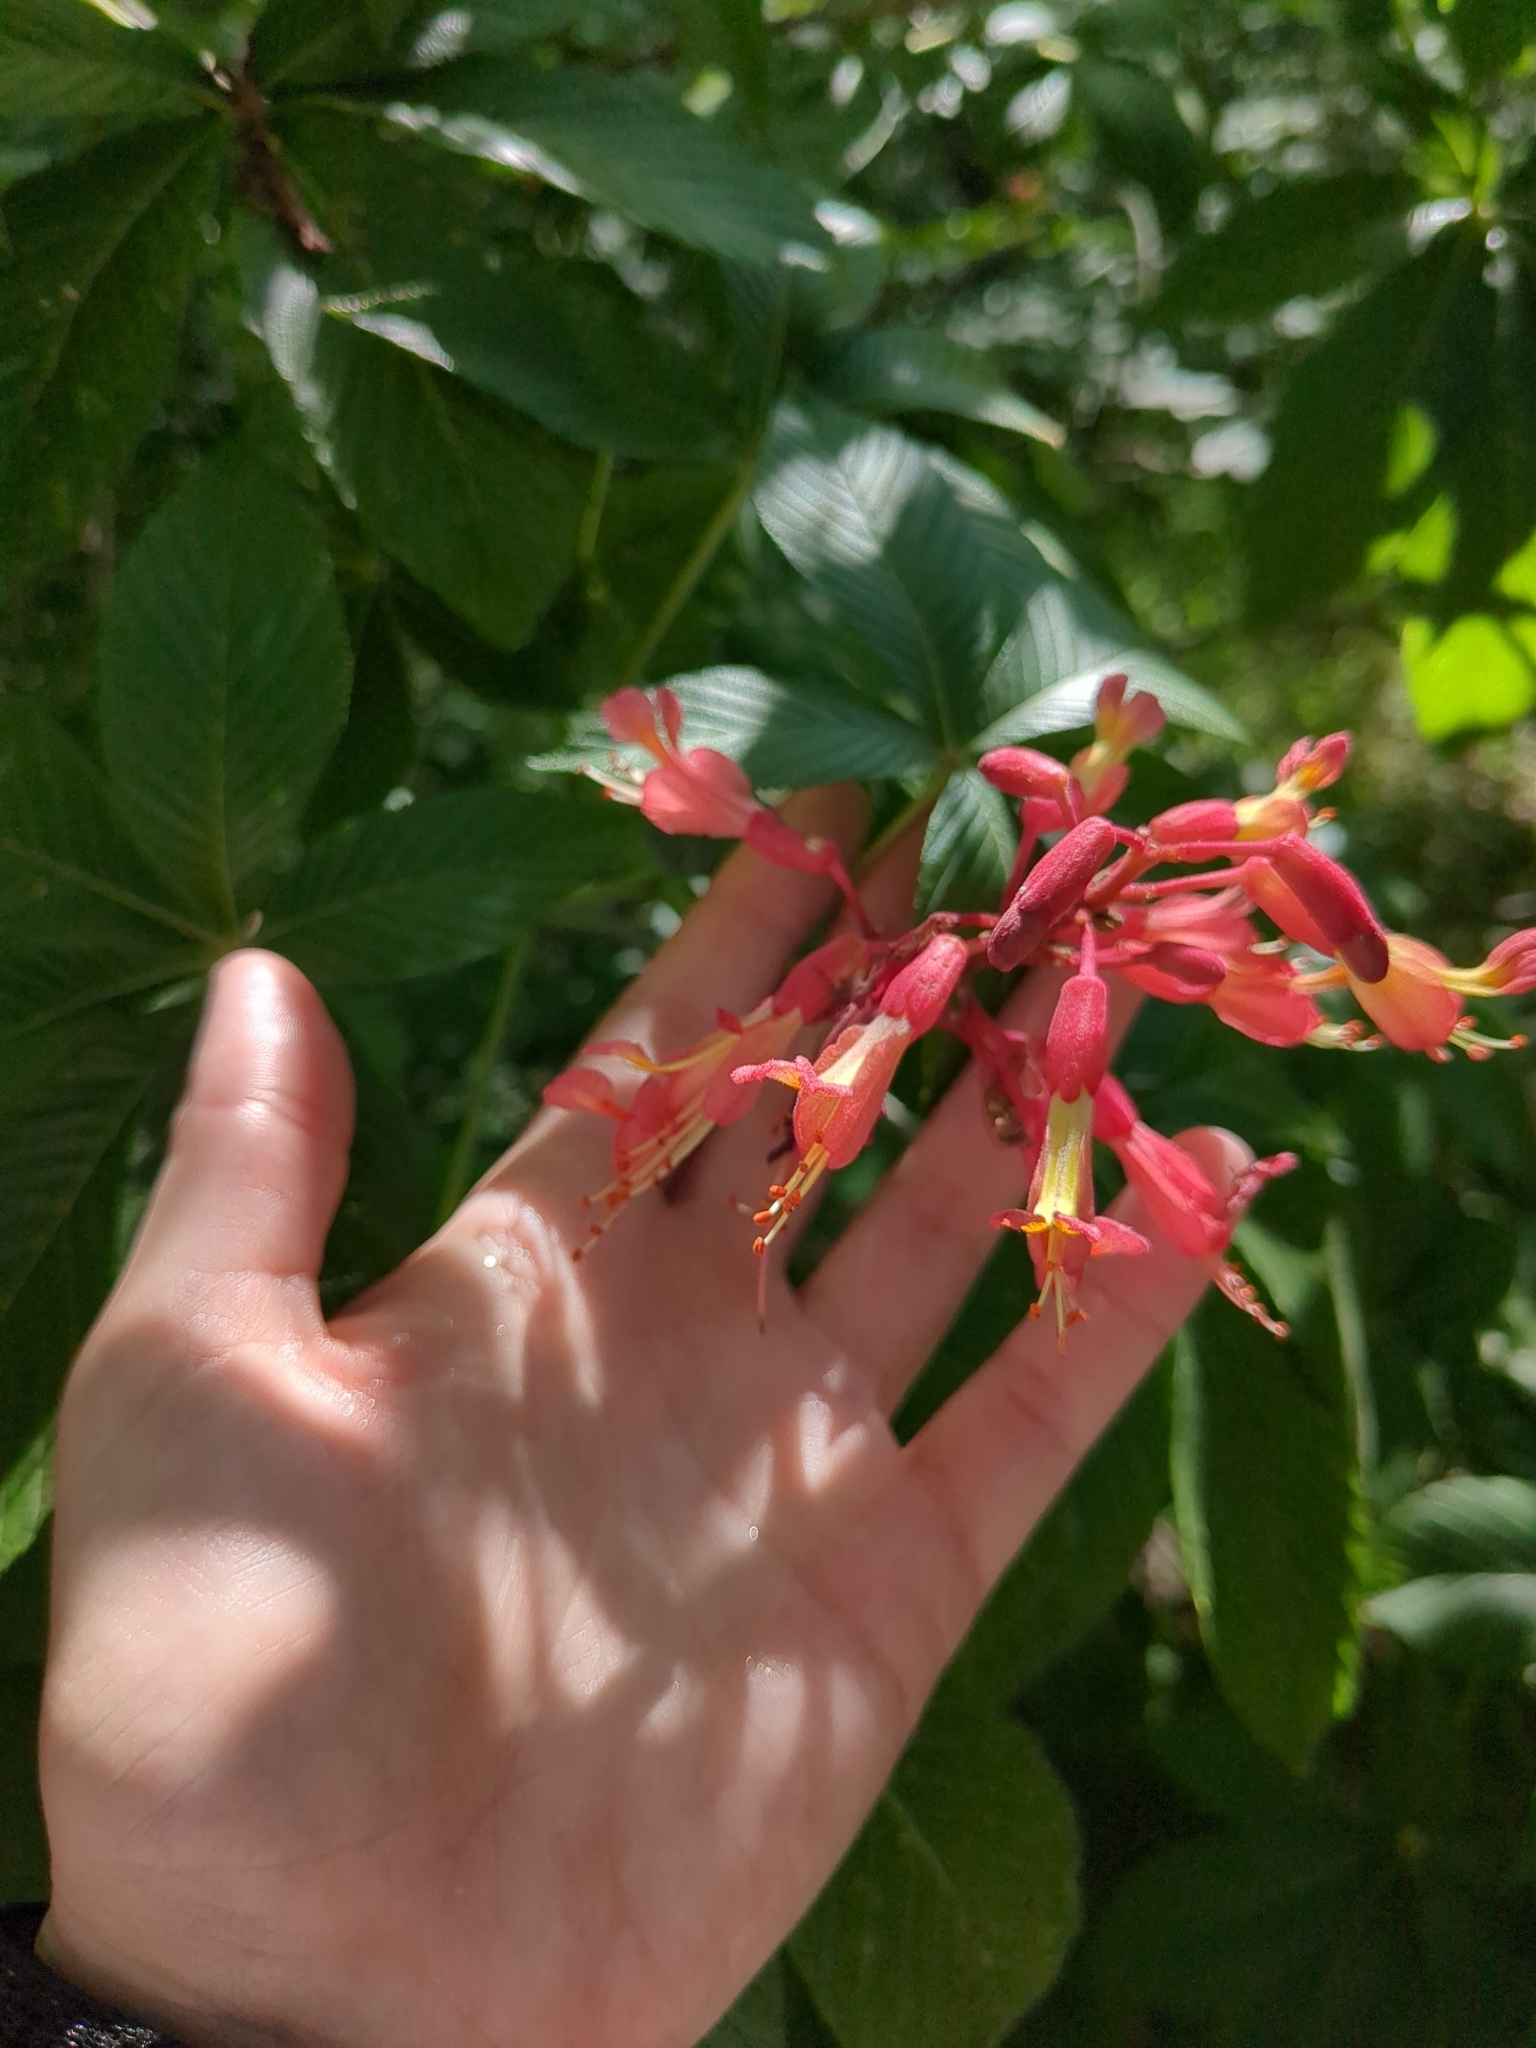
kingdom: Plantae
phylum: Tracheophyta
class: Magnoliopsida
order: Sapindales
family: Sapindaceae
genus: Aesculus
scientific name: Aesculus pavia
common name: Red buckeye
